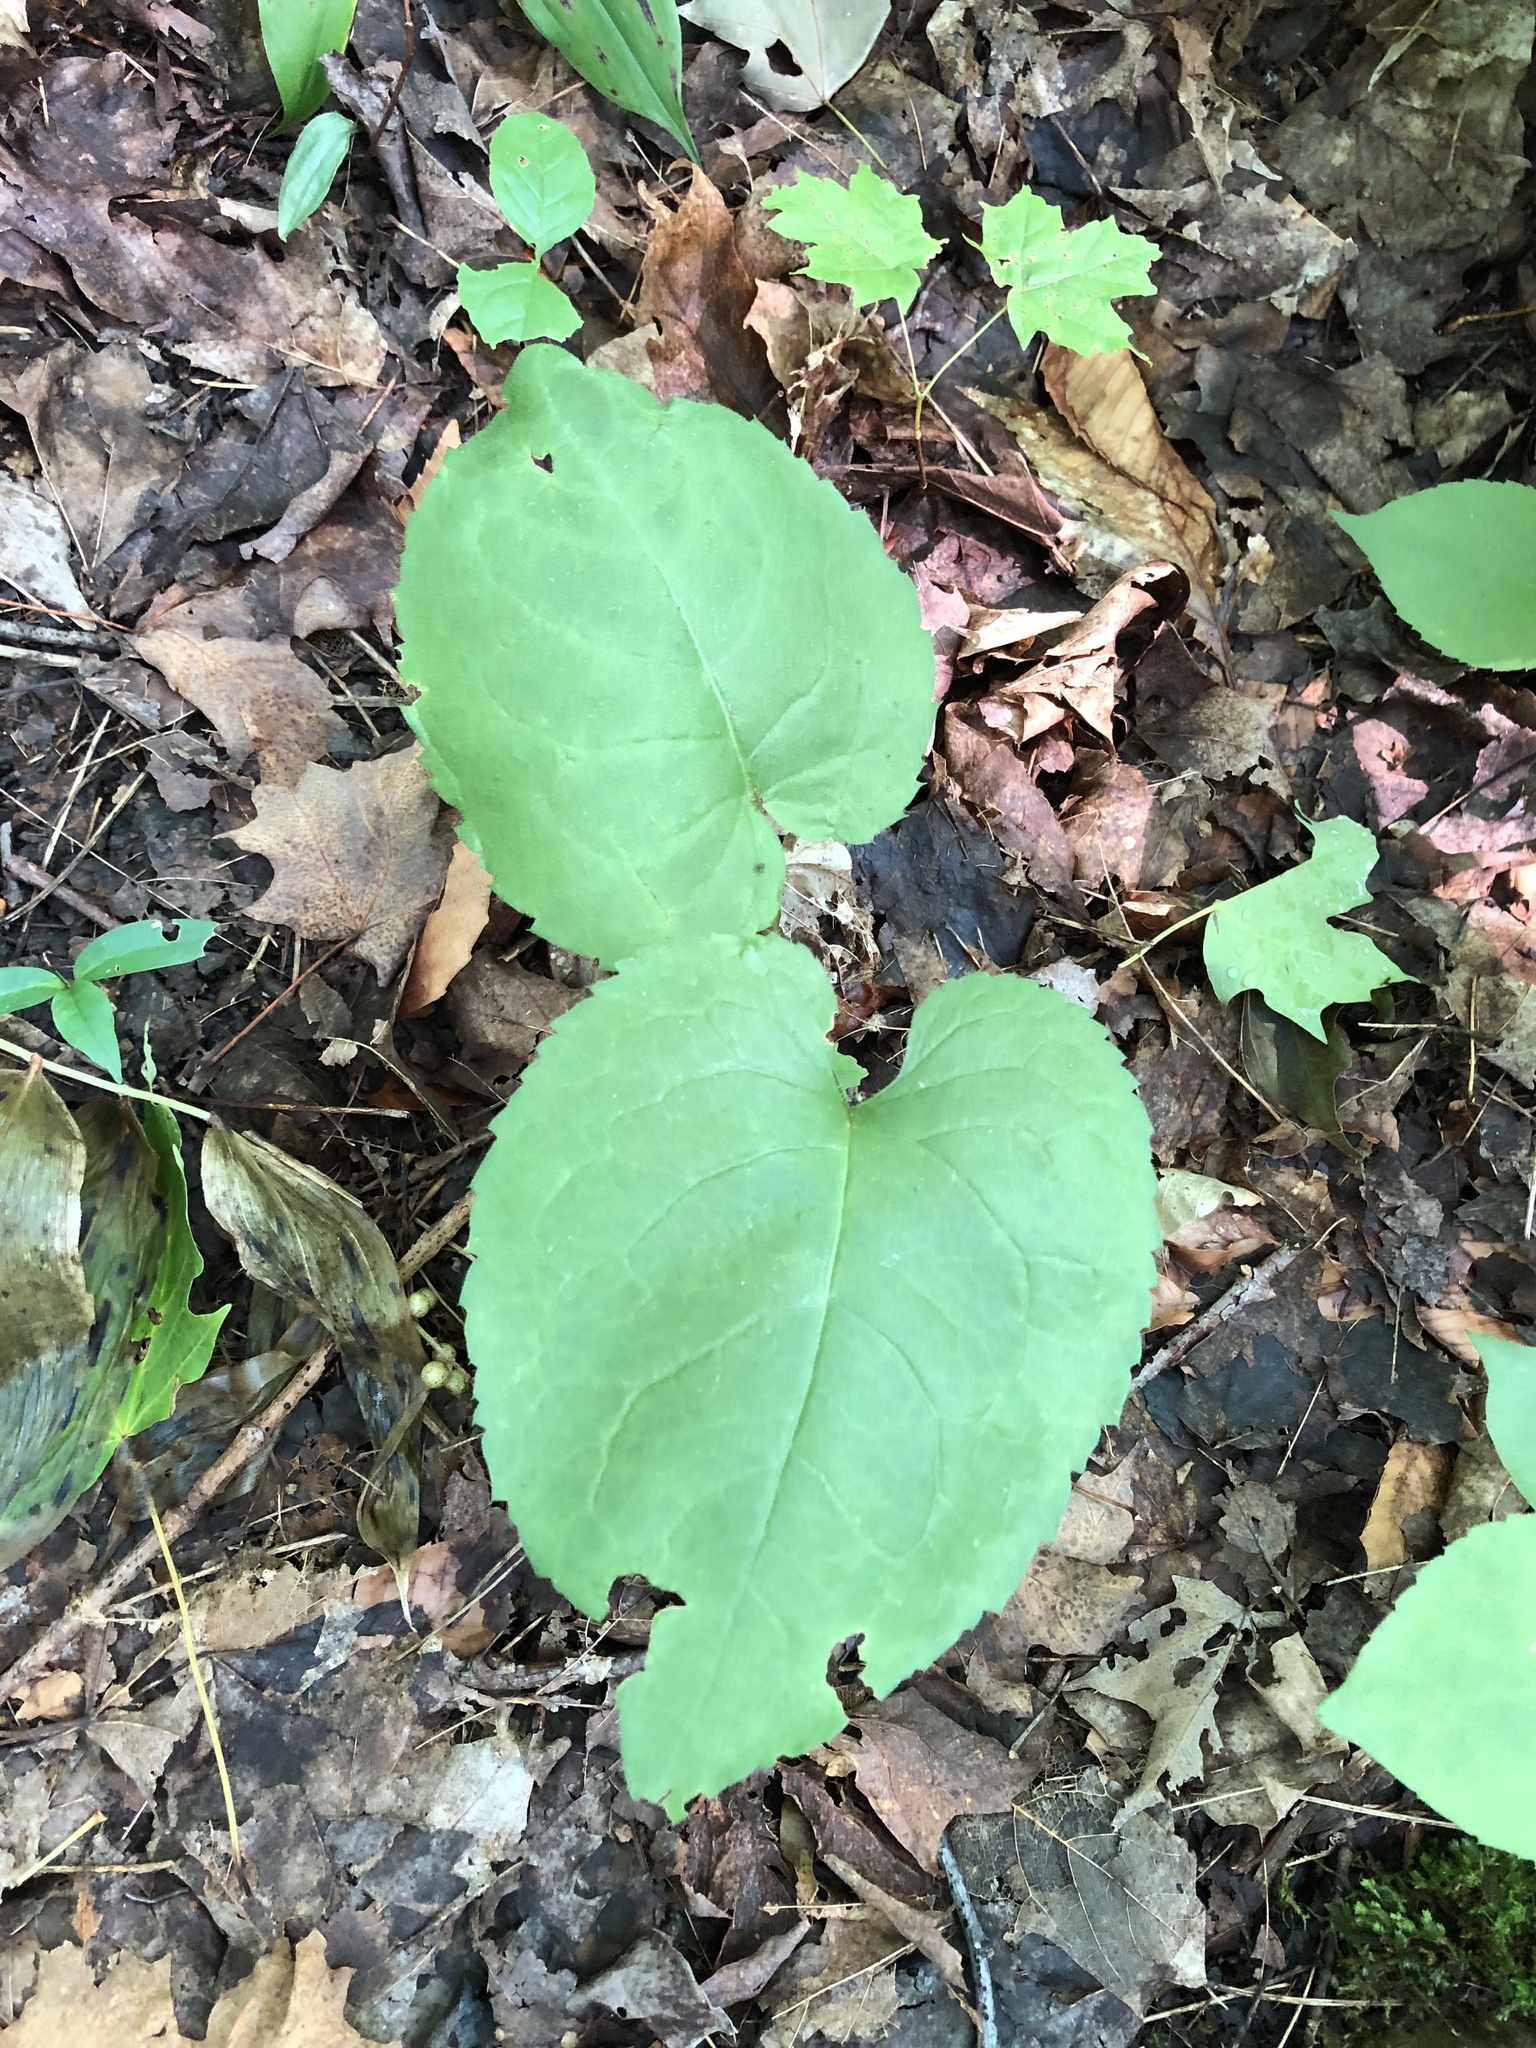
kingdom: Plantae
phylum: Tracheophyta
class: Magnoliopsida
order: Asterales
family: Asteraceae
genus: Eurybia
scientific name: Eurybia macrophylla
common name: Big-leaved aster
